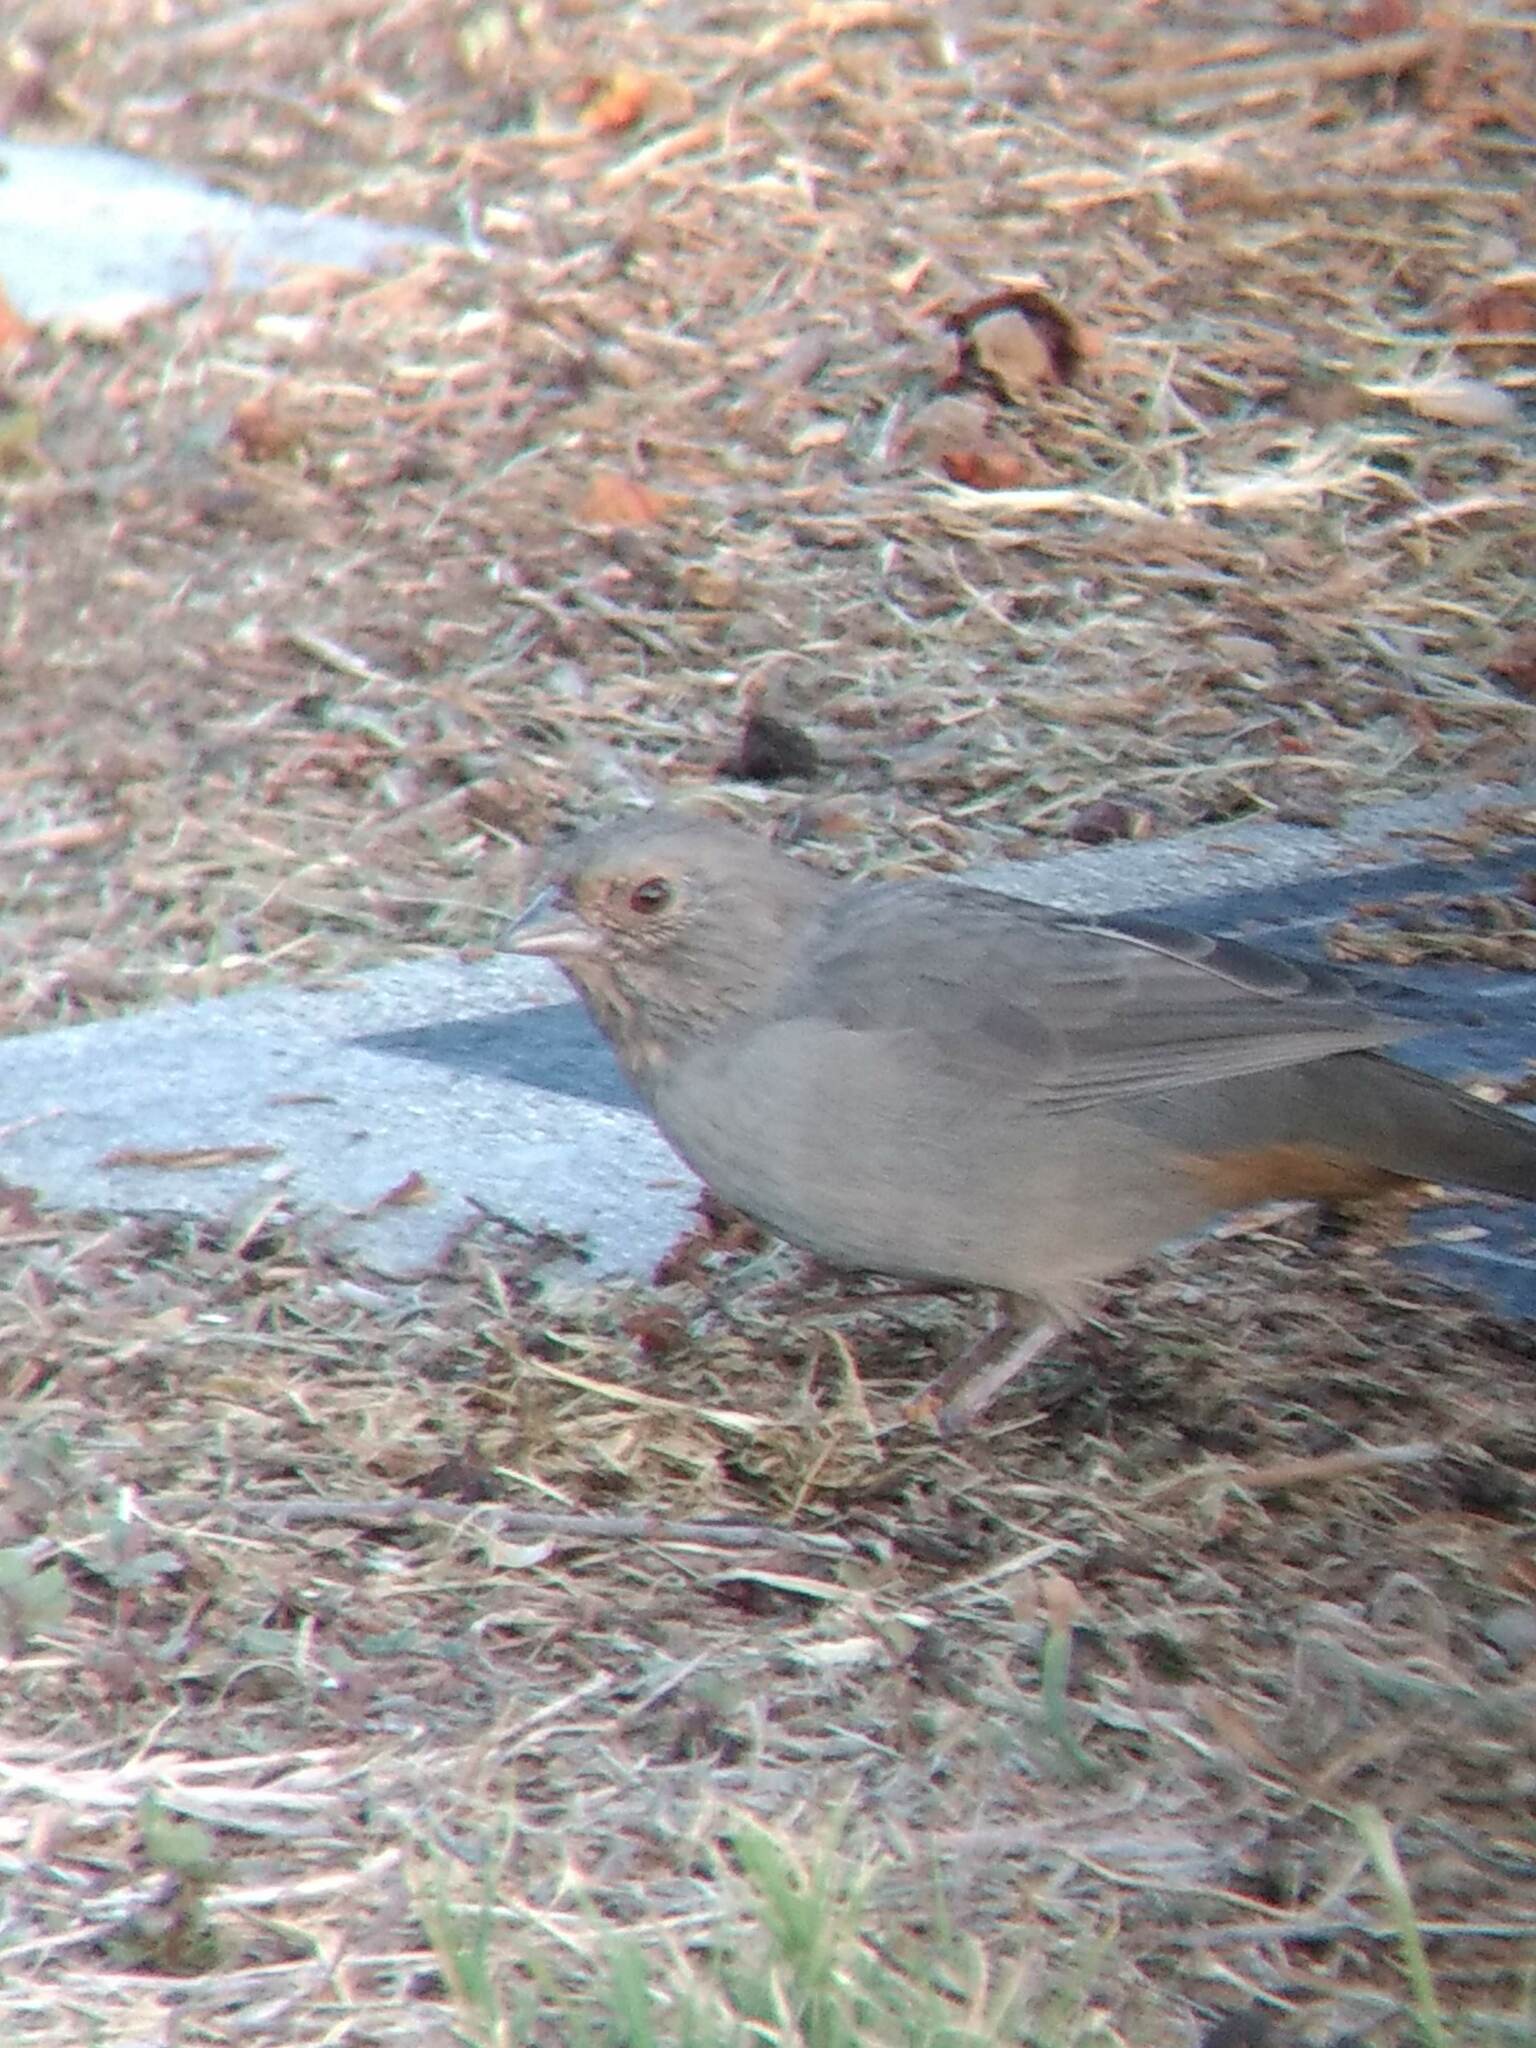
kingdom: Animalia
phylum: Chordata
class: Aves
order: Passeriformes
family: Passerellidae
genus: Melozone
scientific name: Melozone crissalis
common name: California towhee
